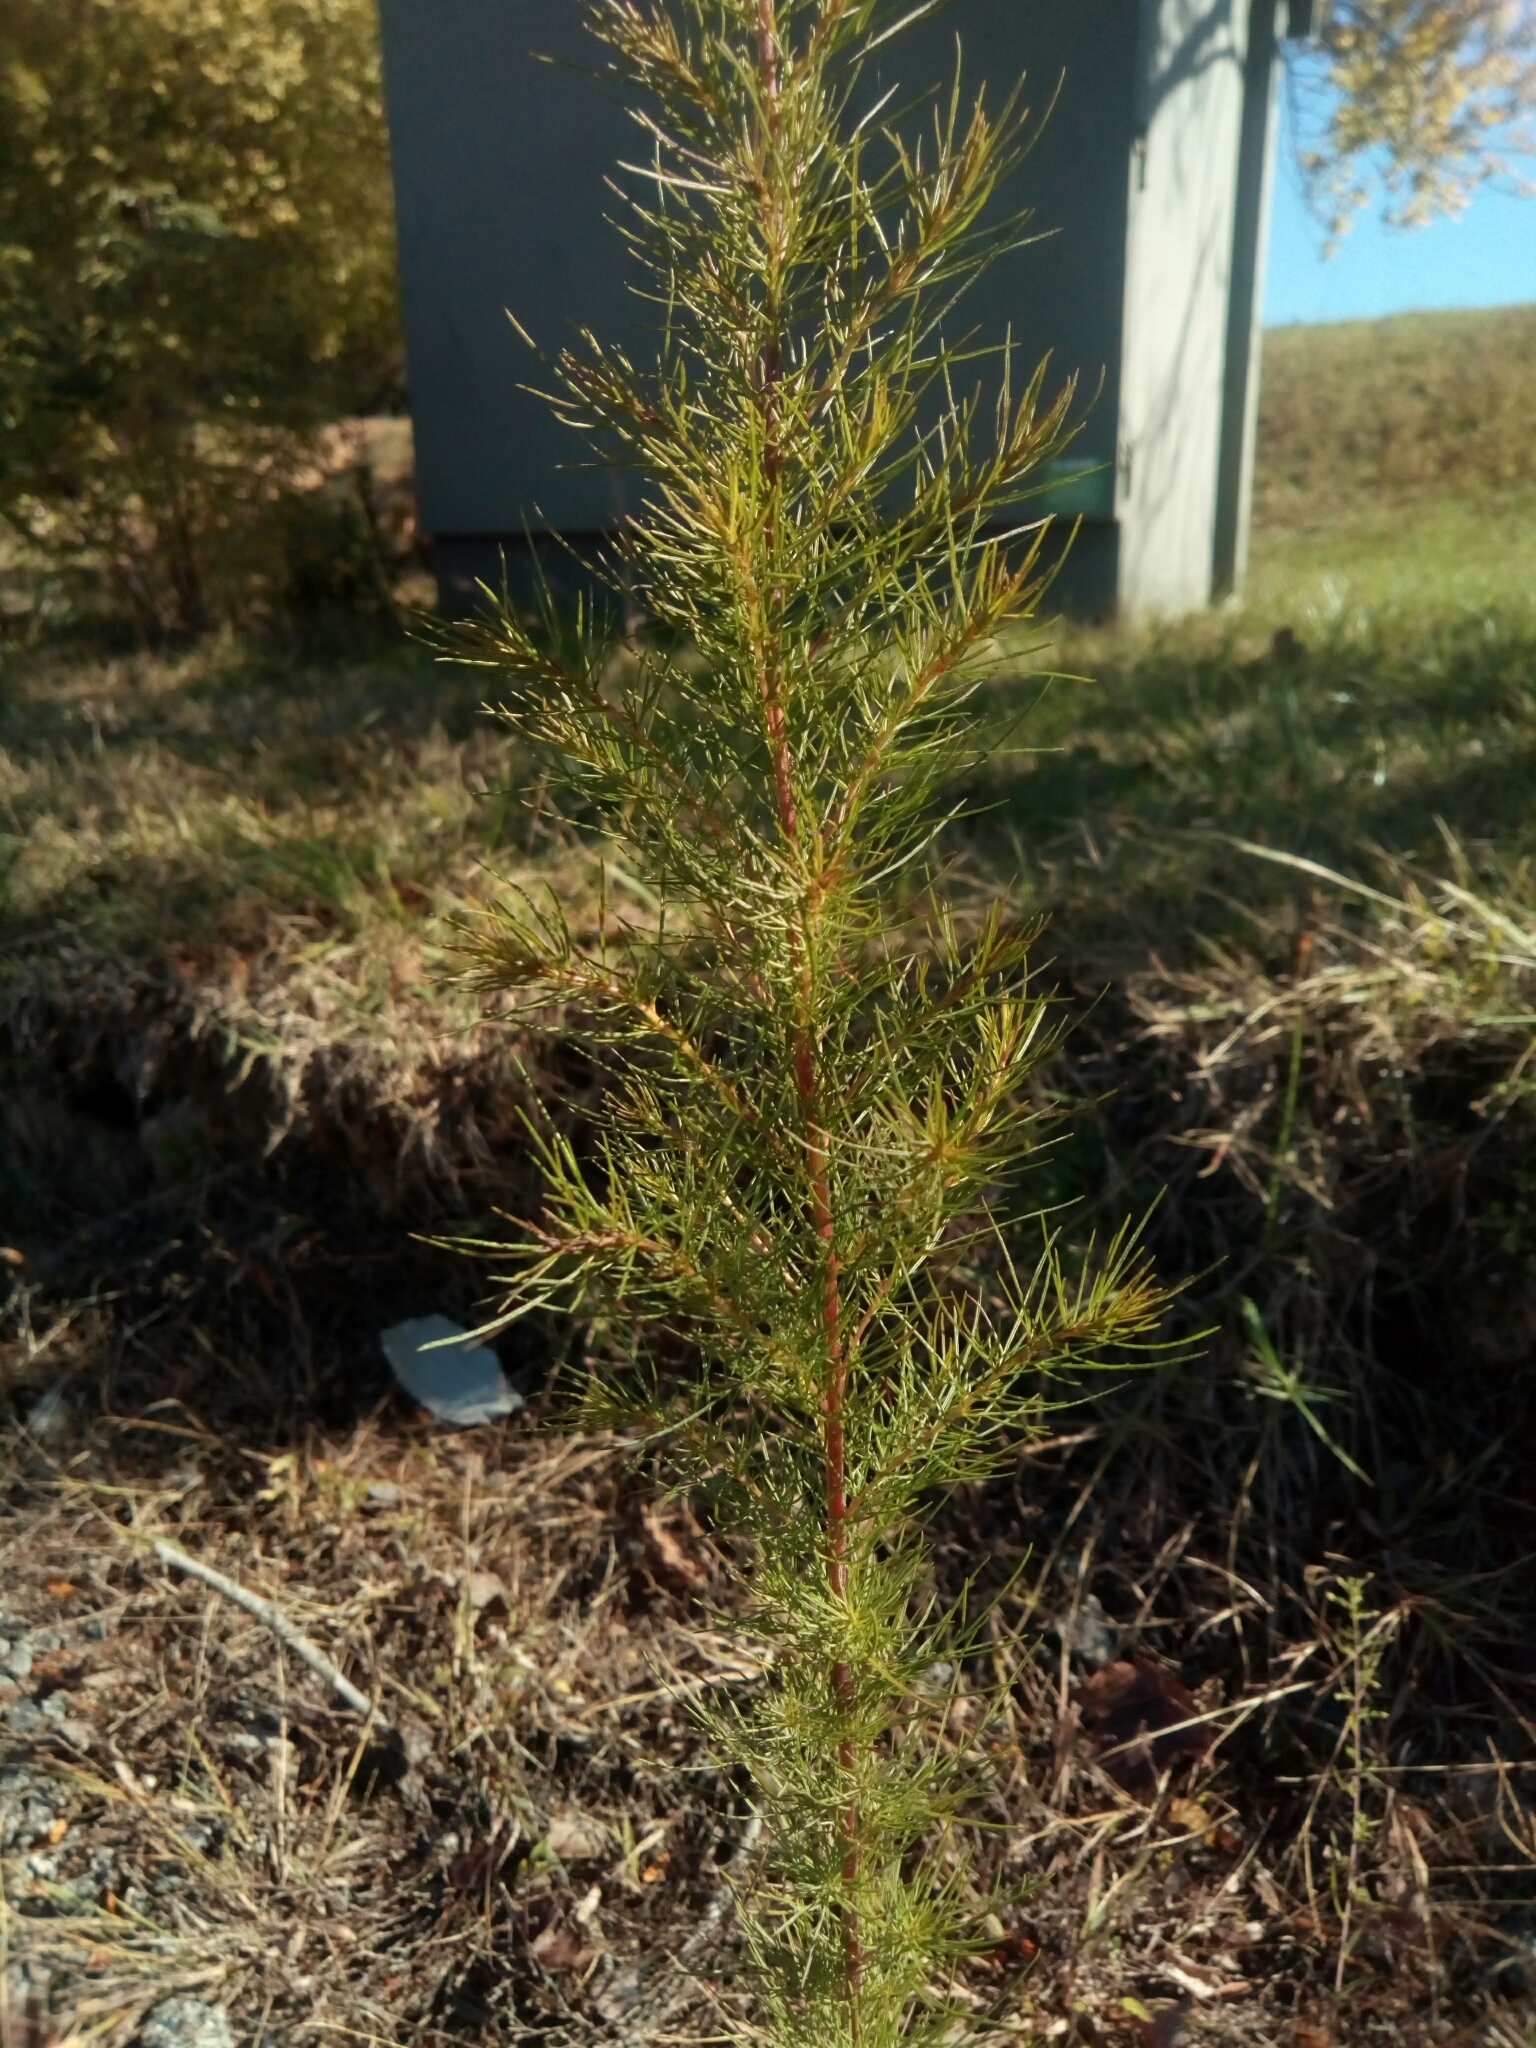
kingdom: Plantae
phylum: Tracheophyta
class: Magnoliopsida
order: Asterales
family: Asteraceae
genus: Eupatorium
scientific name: Eupatorium capillifolium
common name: Dog-fennel
